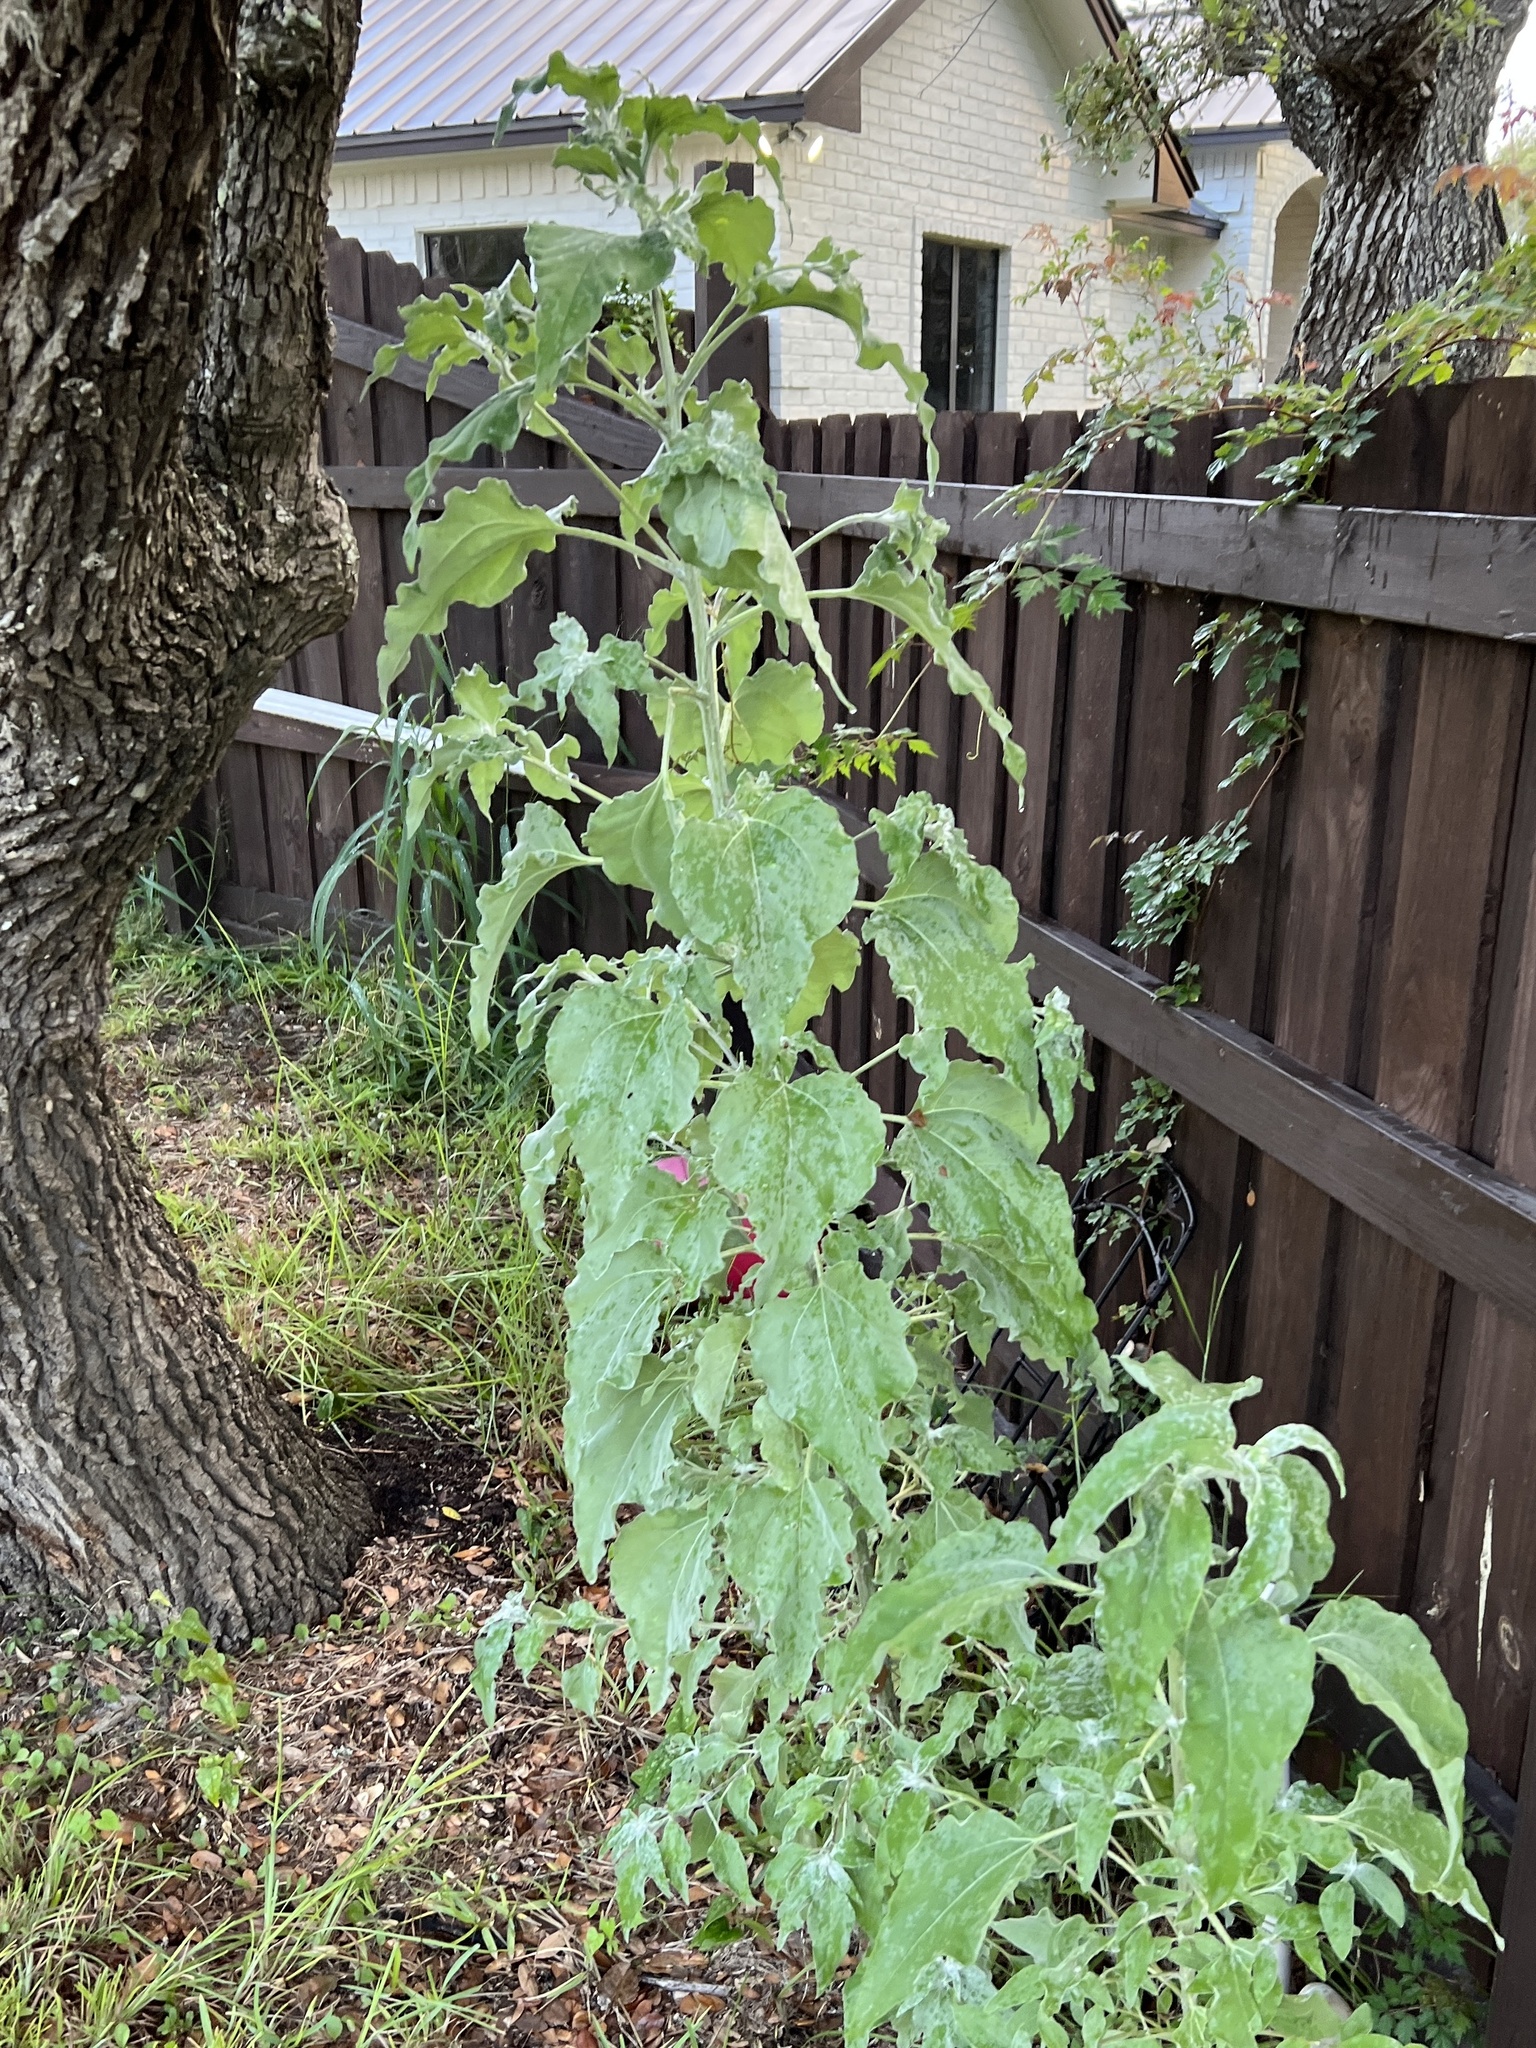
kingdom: Plantae
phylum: Tracheophyta
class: Magnoliopsida
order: Asterales
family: Asteraceae
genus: Helianthus
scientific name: Helianthus argophyllus
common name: Silverleaf sunflower
